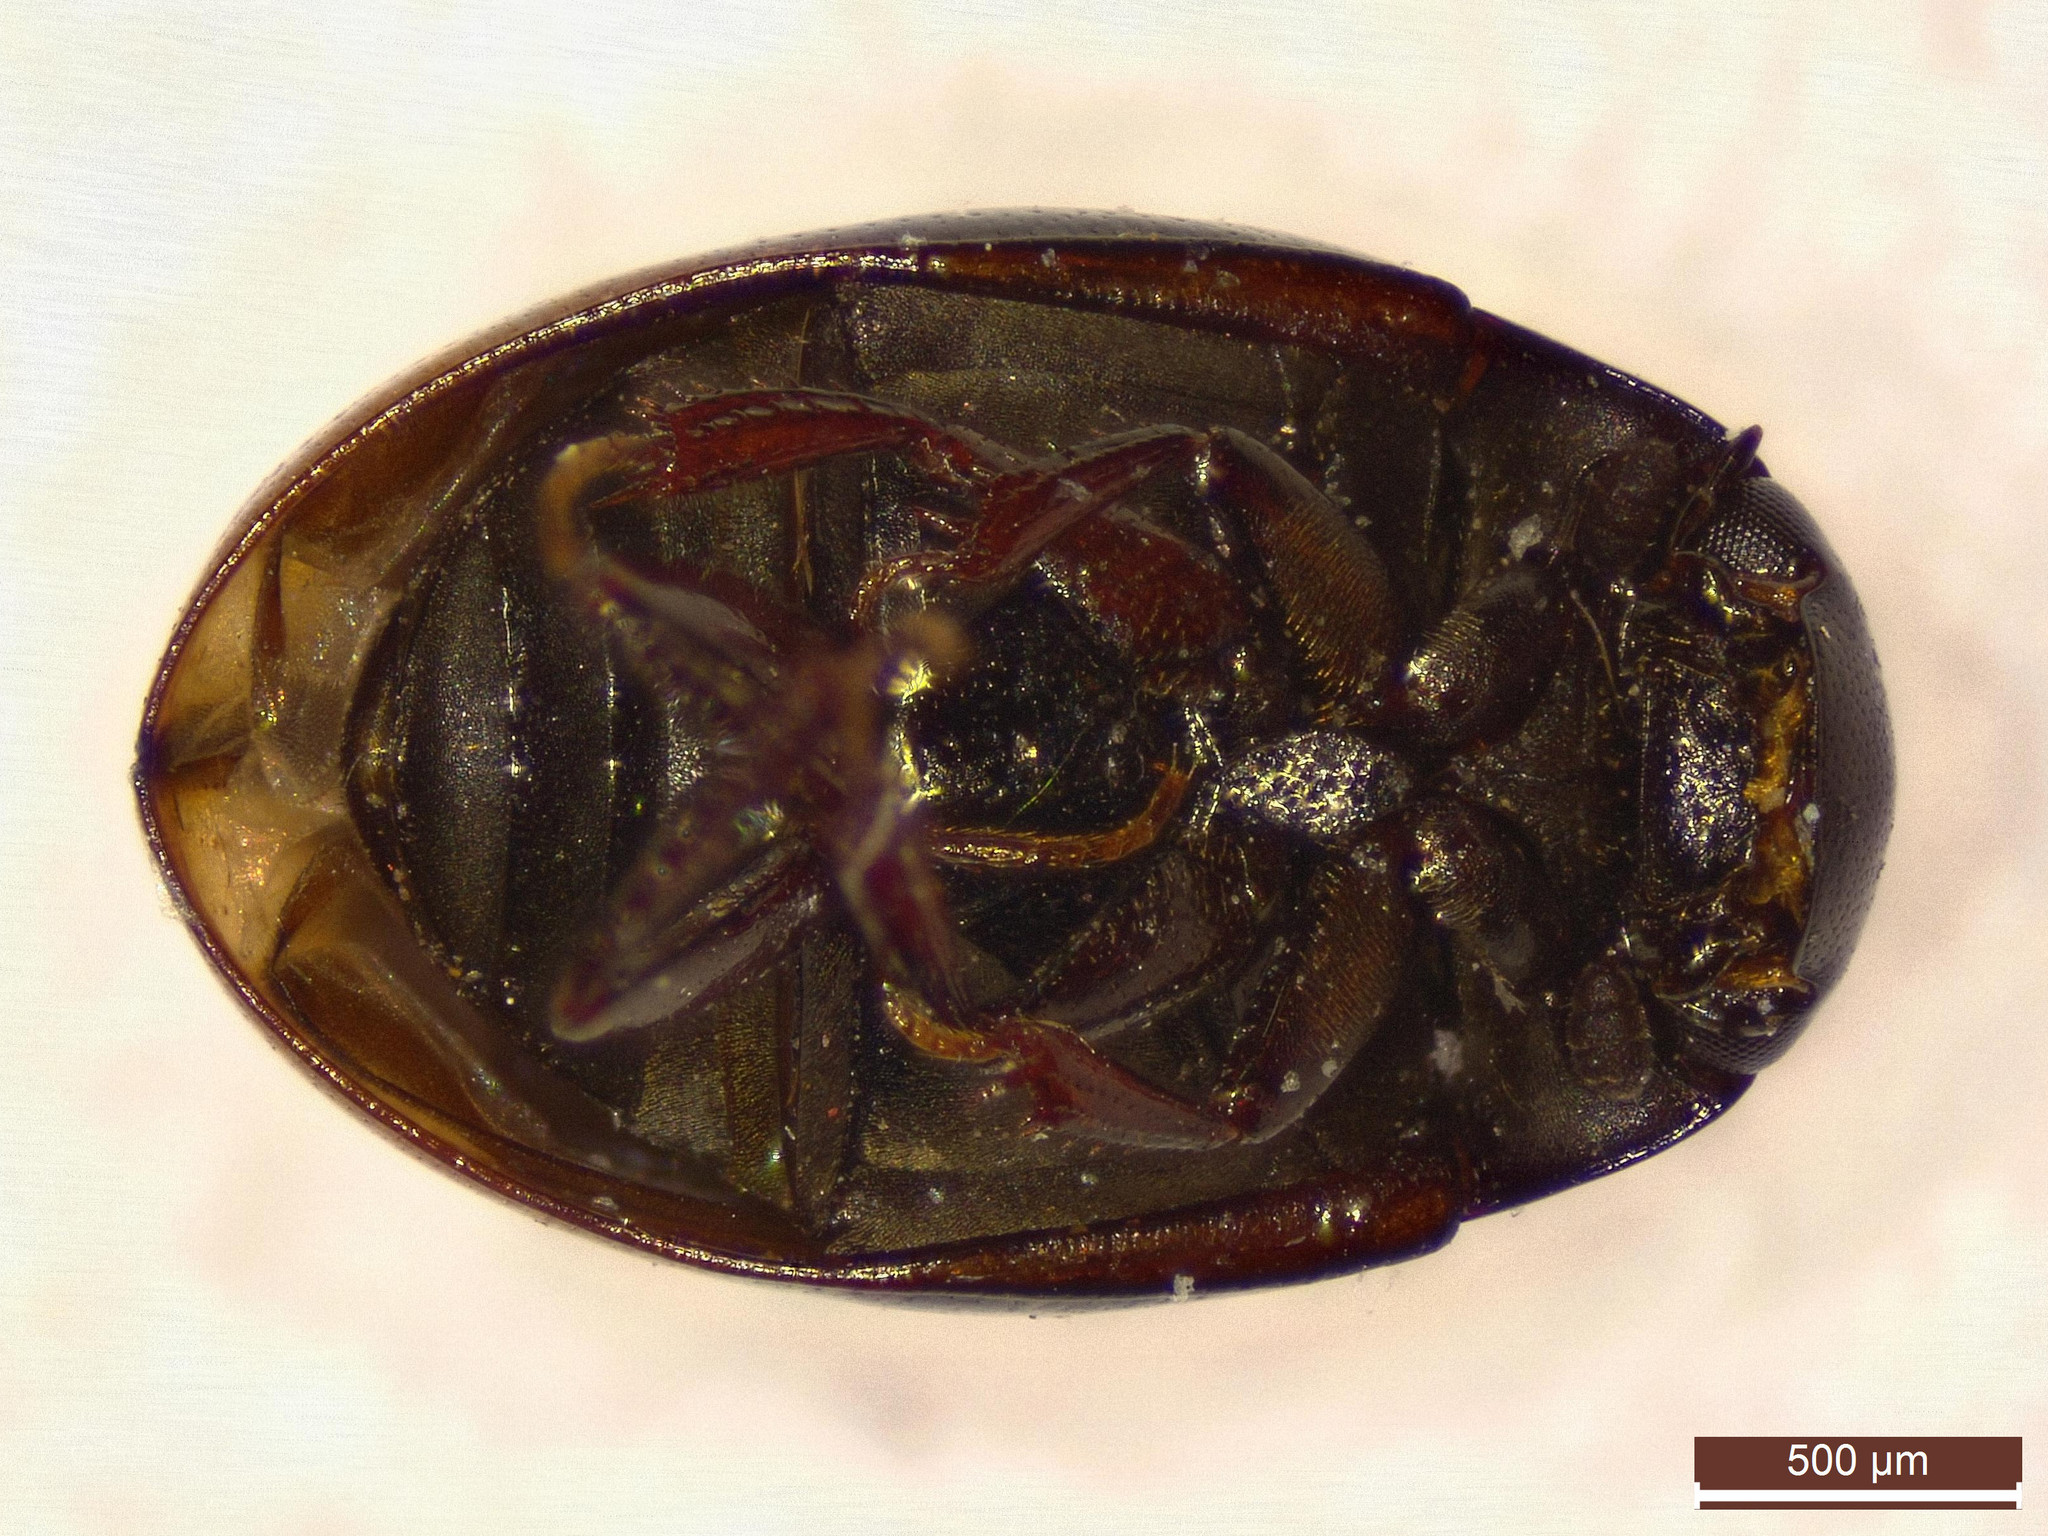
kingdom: Animalia
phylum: Arthropoda
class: Insecta
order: Coleoptera
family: Hydrophilidae
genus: Cercyon
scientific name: Cercyon bifenestratus
